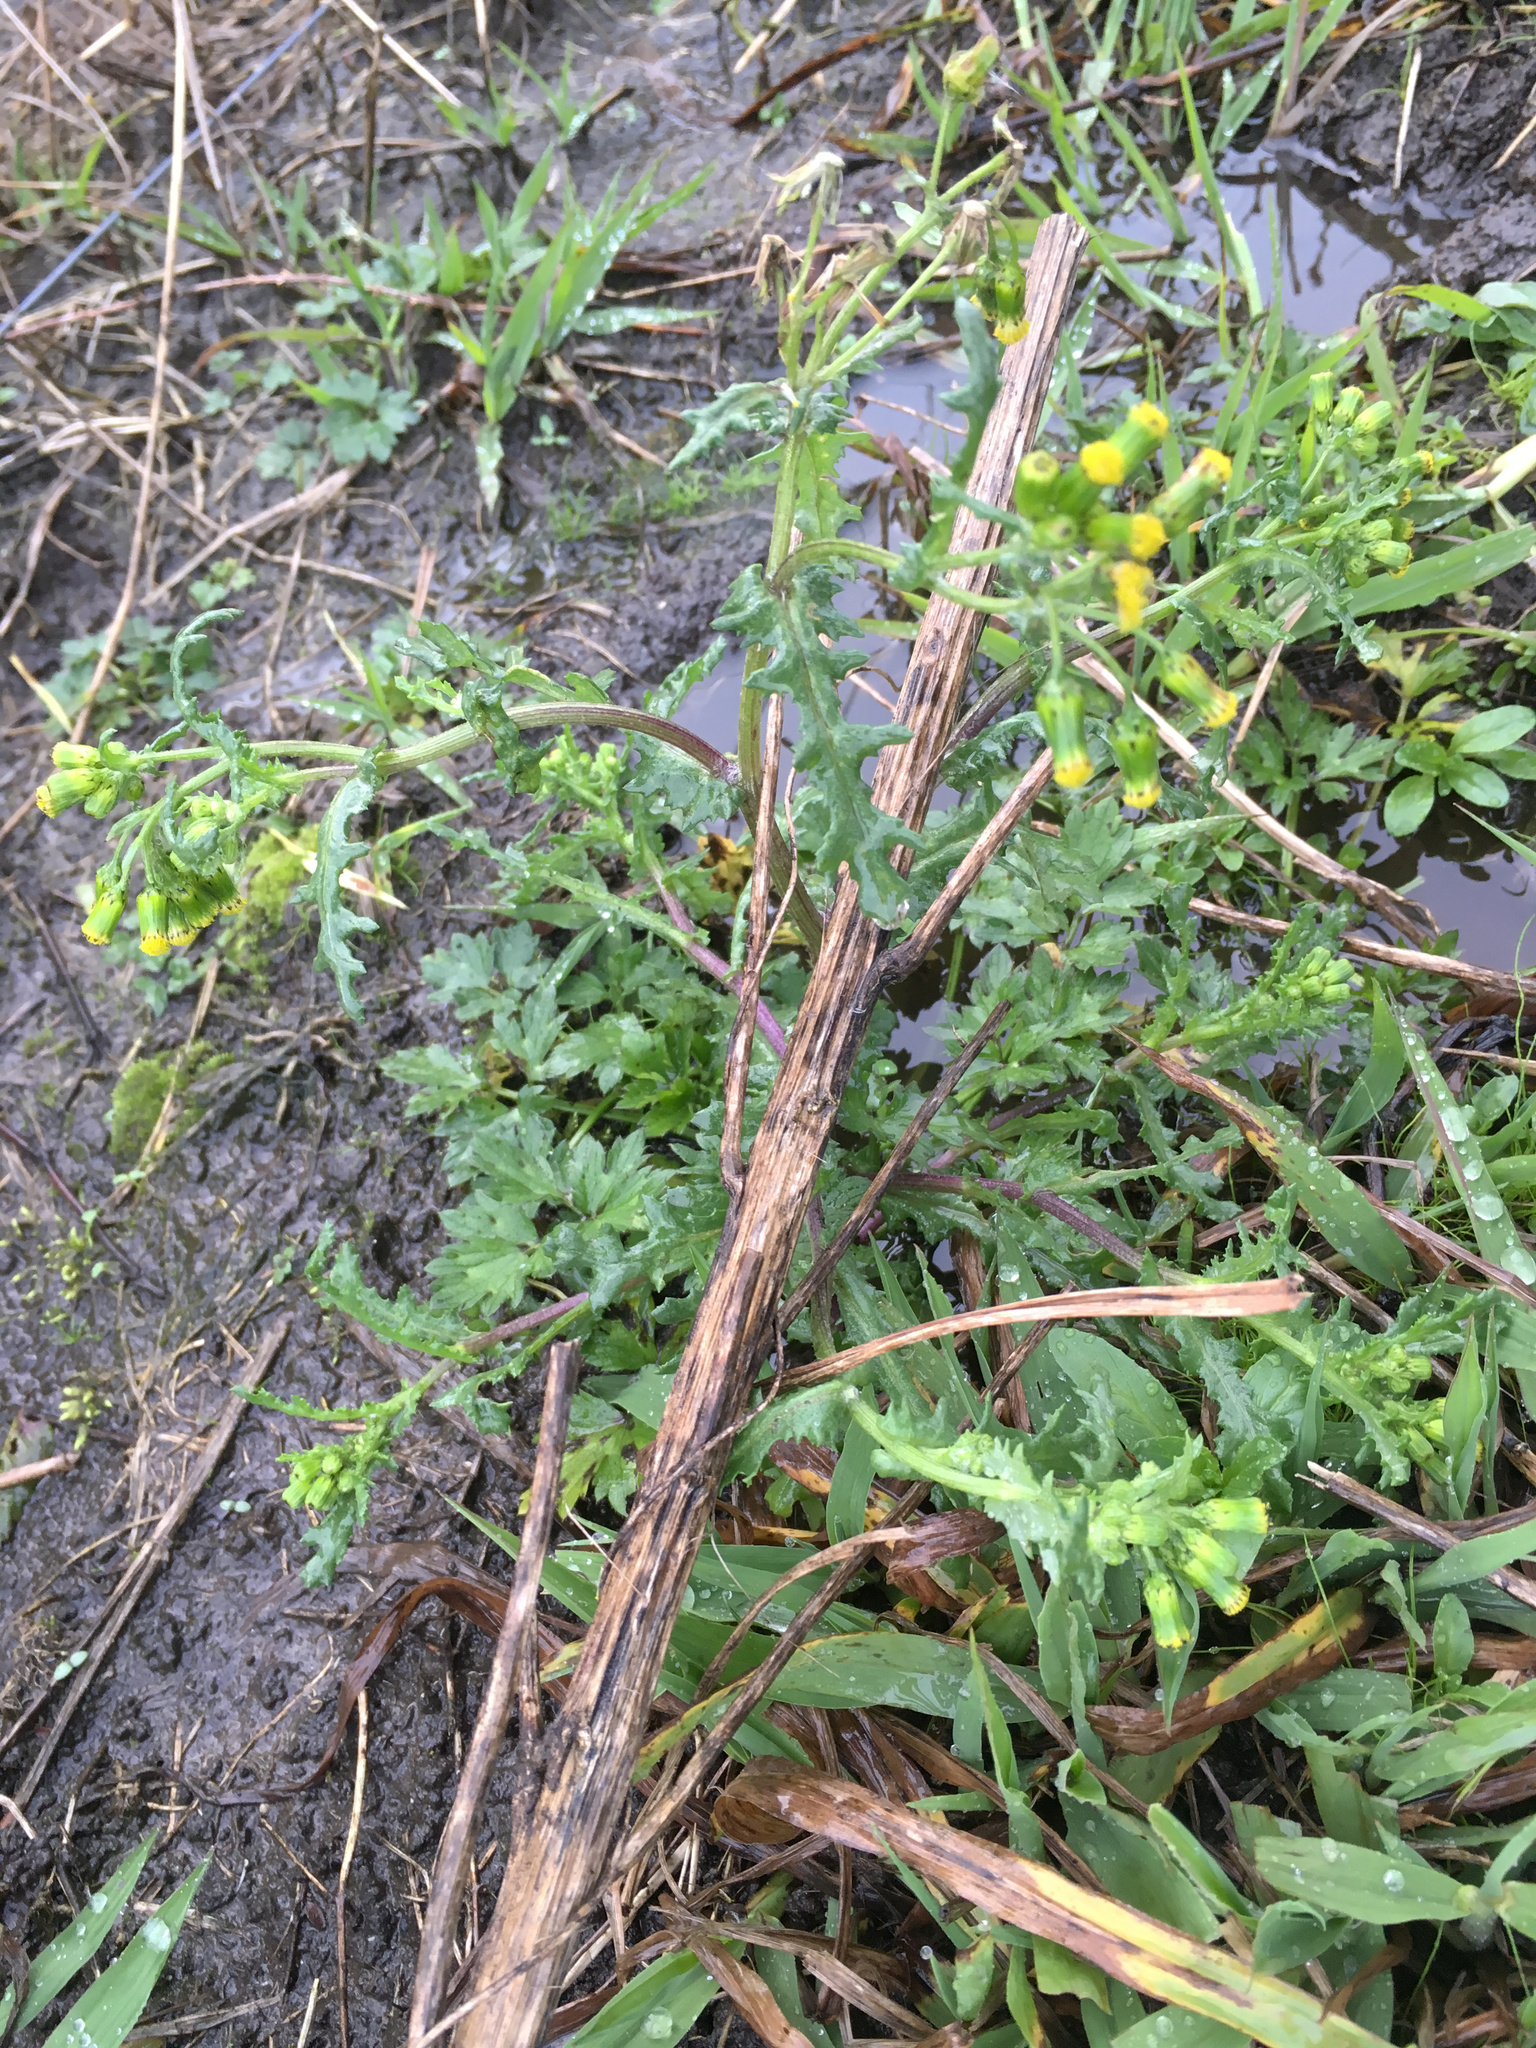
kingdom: Plantae
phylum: Tracheophyta
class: Magnoliopsida
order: Asterales
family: Asteraceae
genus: Senecio
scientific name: Senecio vulgaris
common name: Old-man-in-the-spring
